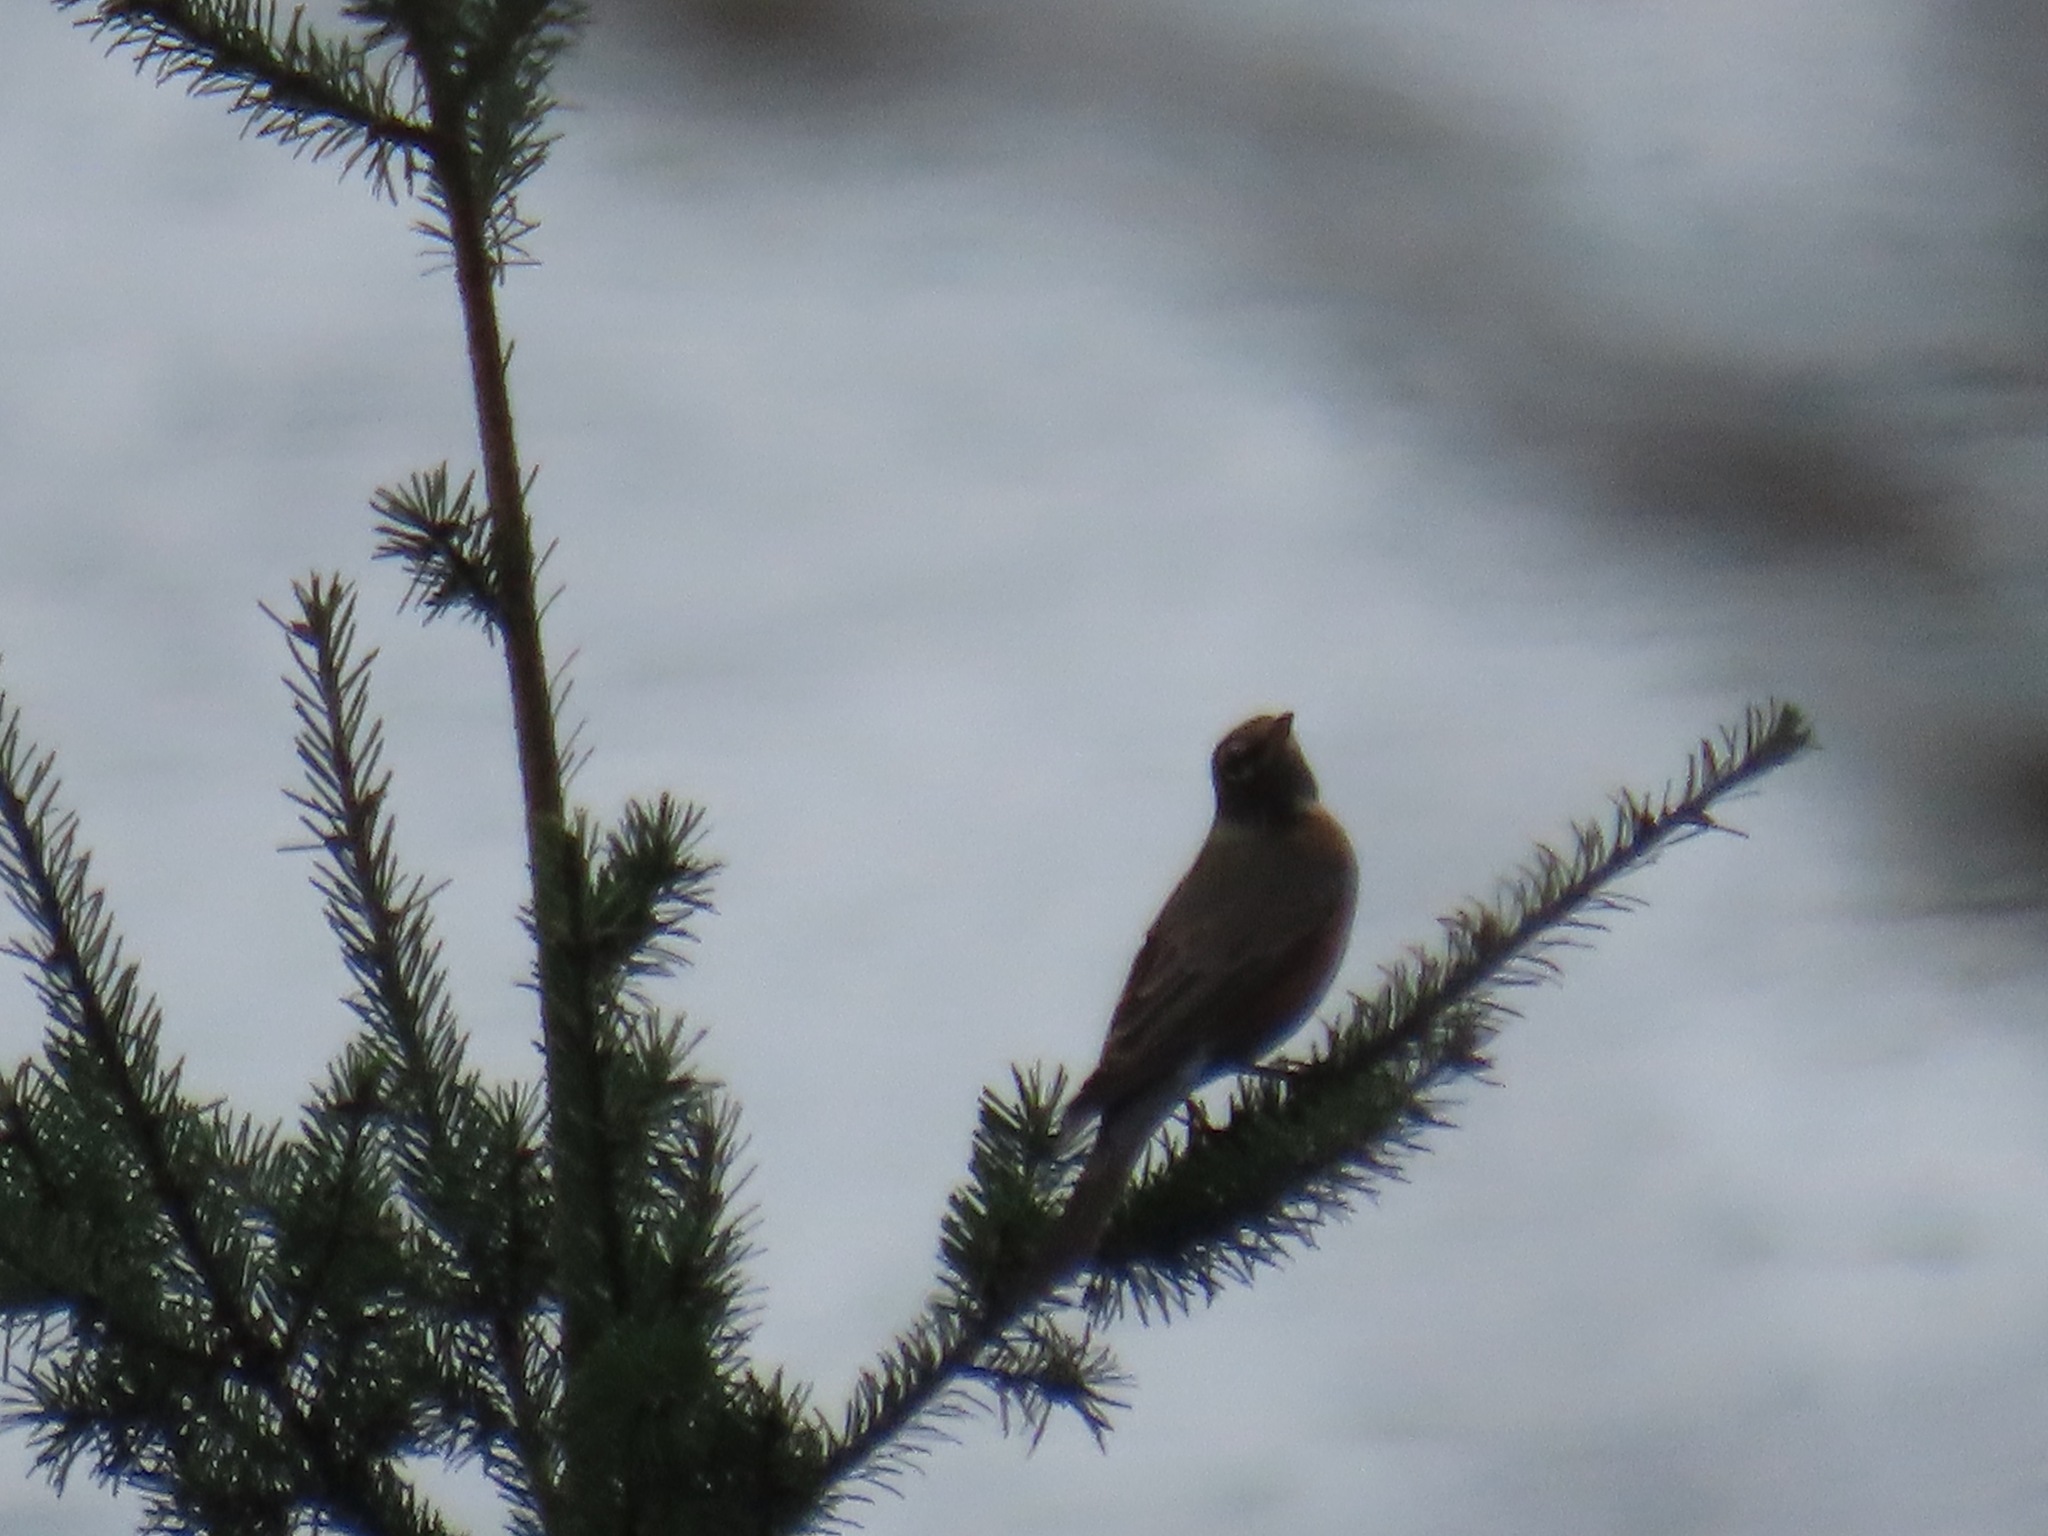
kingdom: Animalia
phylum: Chordata
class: Aves
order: Passeriformes
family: Turdidae
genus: Turdus
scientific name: Turdus migratorius
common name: American robin
